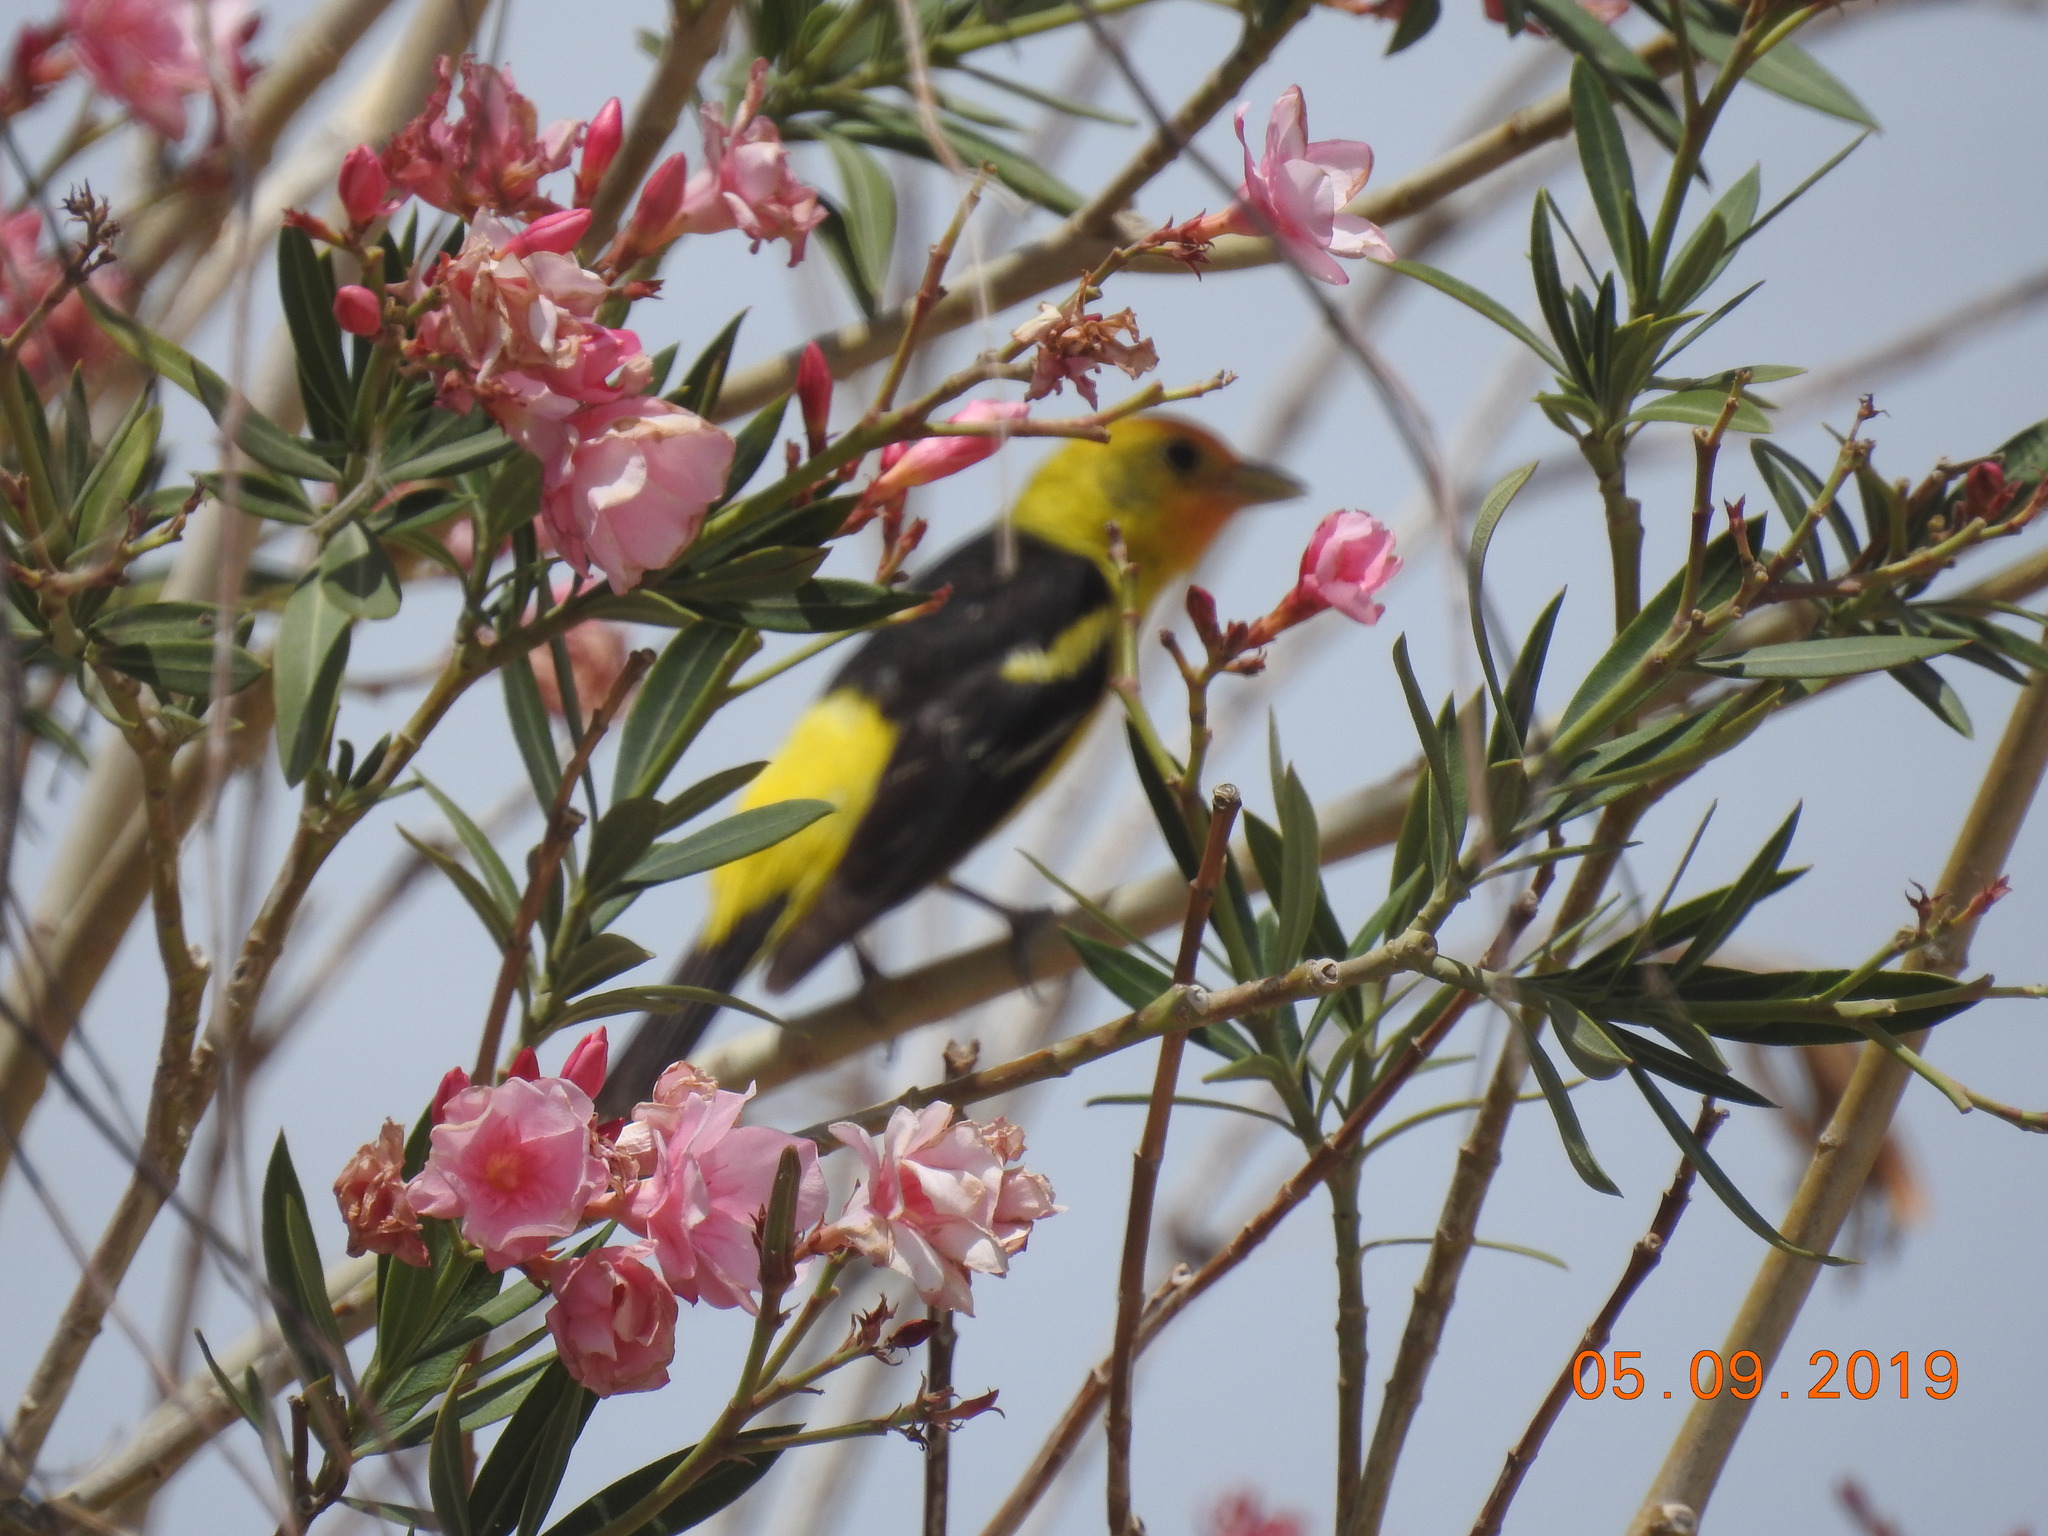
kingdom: Animalia
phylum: Chordata
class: Aves
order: Passeriformes
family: Cardinalidae
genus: Piranga
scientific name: Piranga ludoviciana
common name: Western tanager
